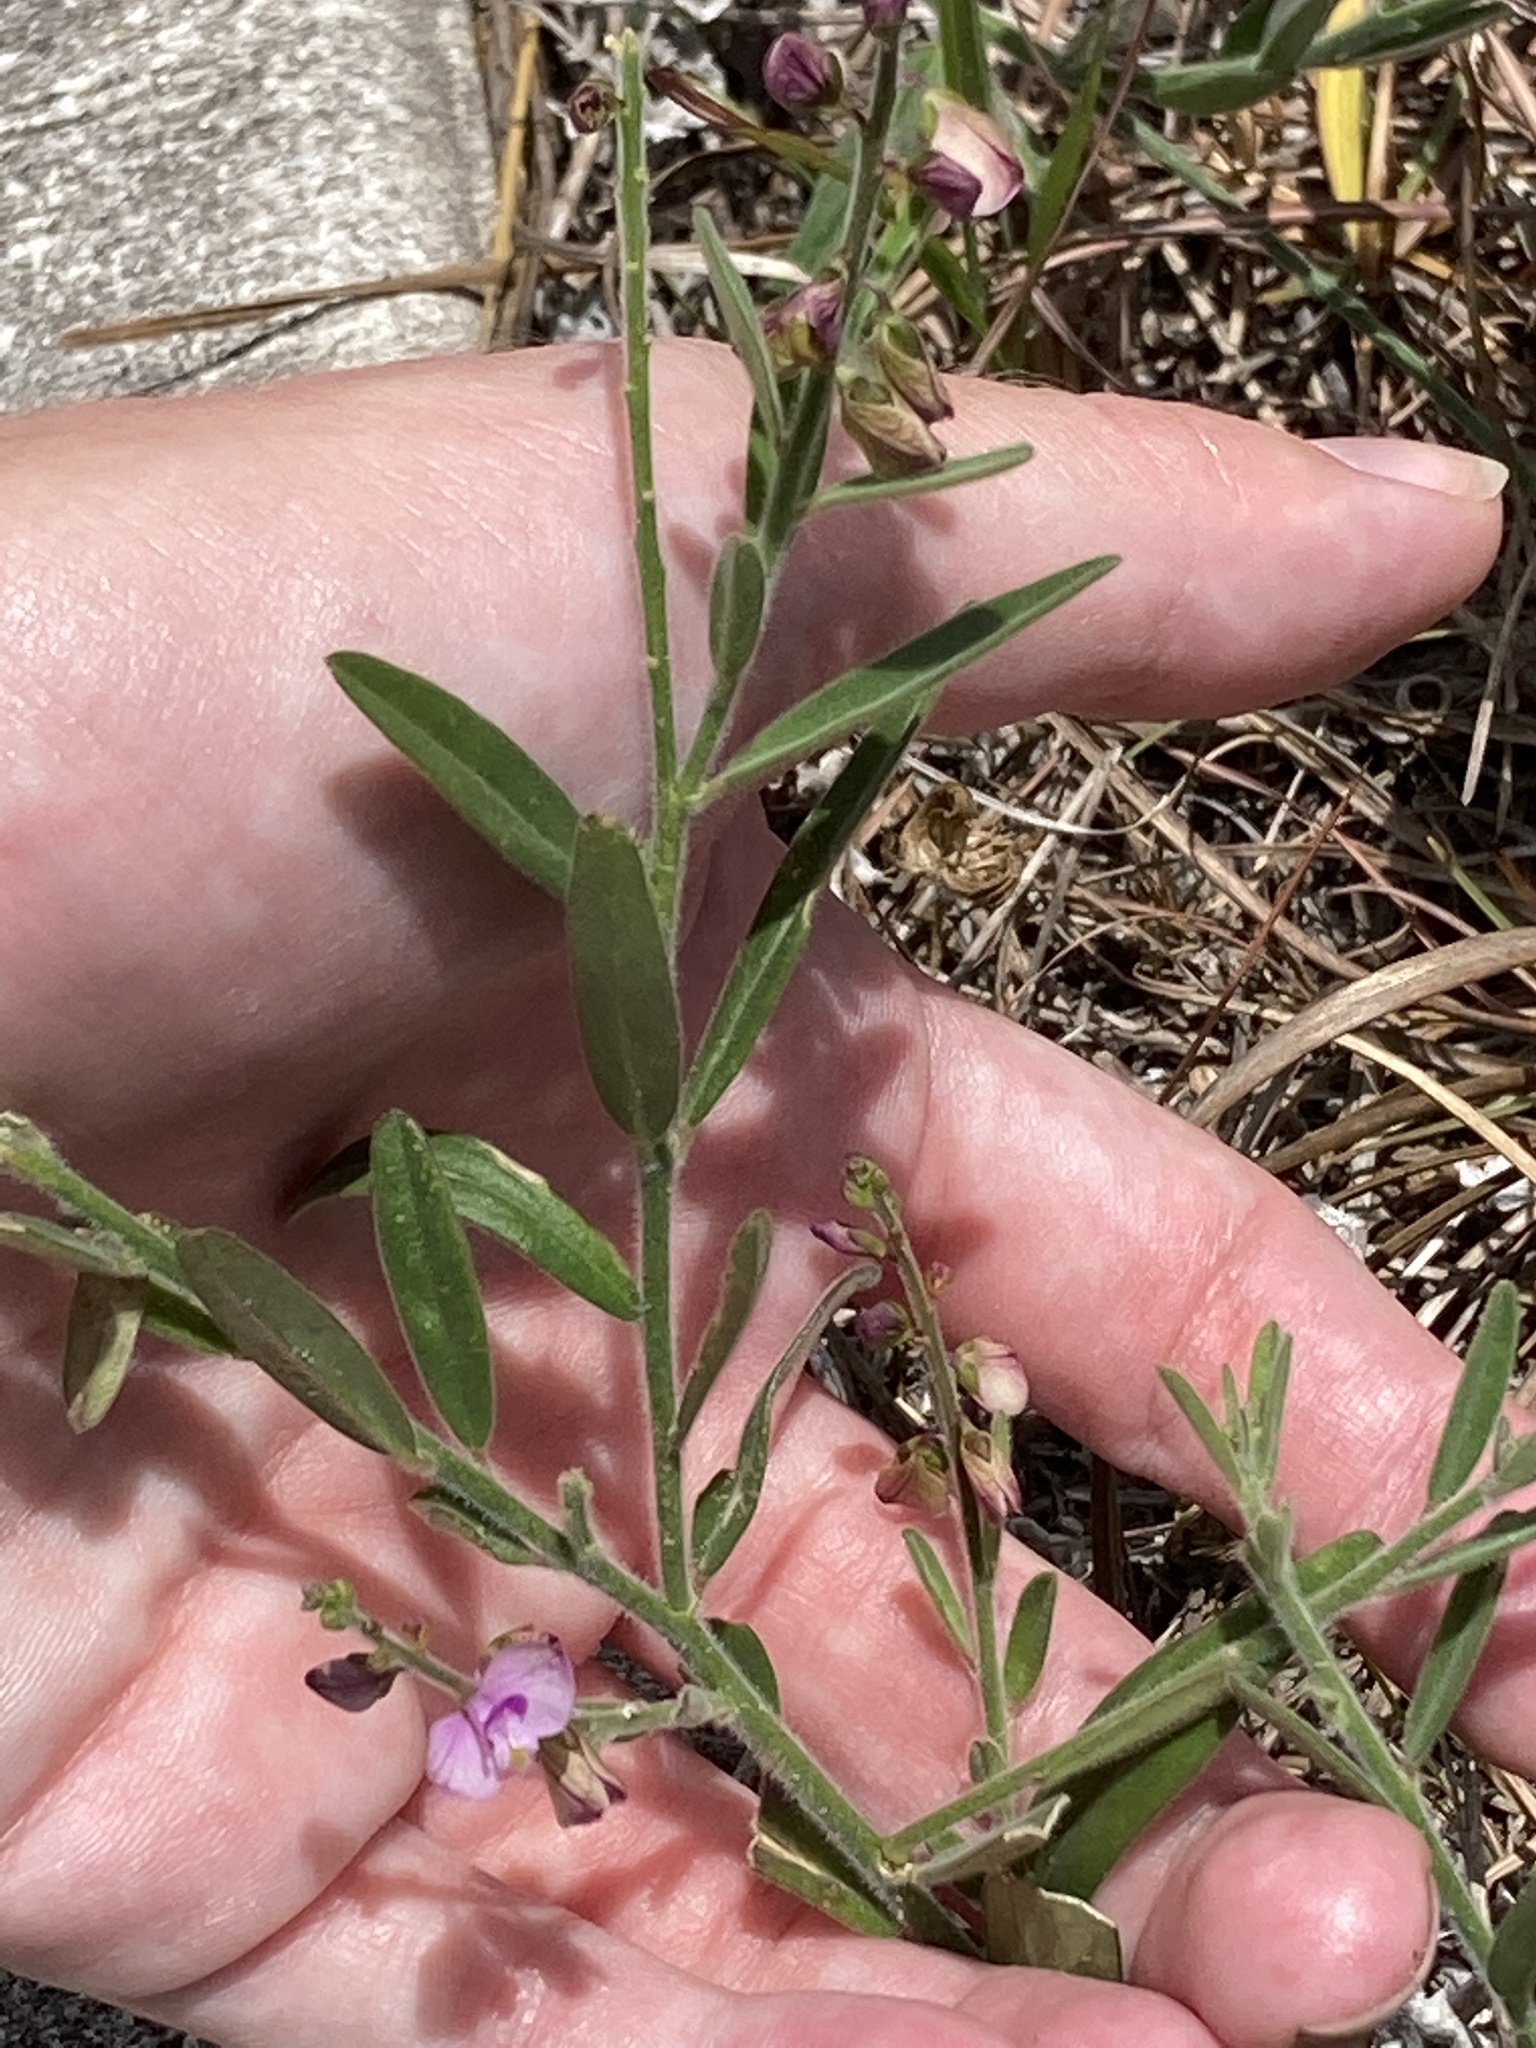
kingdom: Plantae
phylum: Tracheophyta
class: Magnoliopsida
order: Fabales
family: Polygalaceae
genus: Asemeia
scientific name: Asemeia grandiflora
